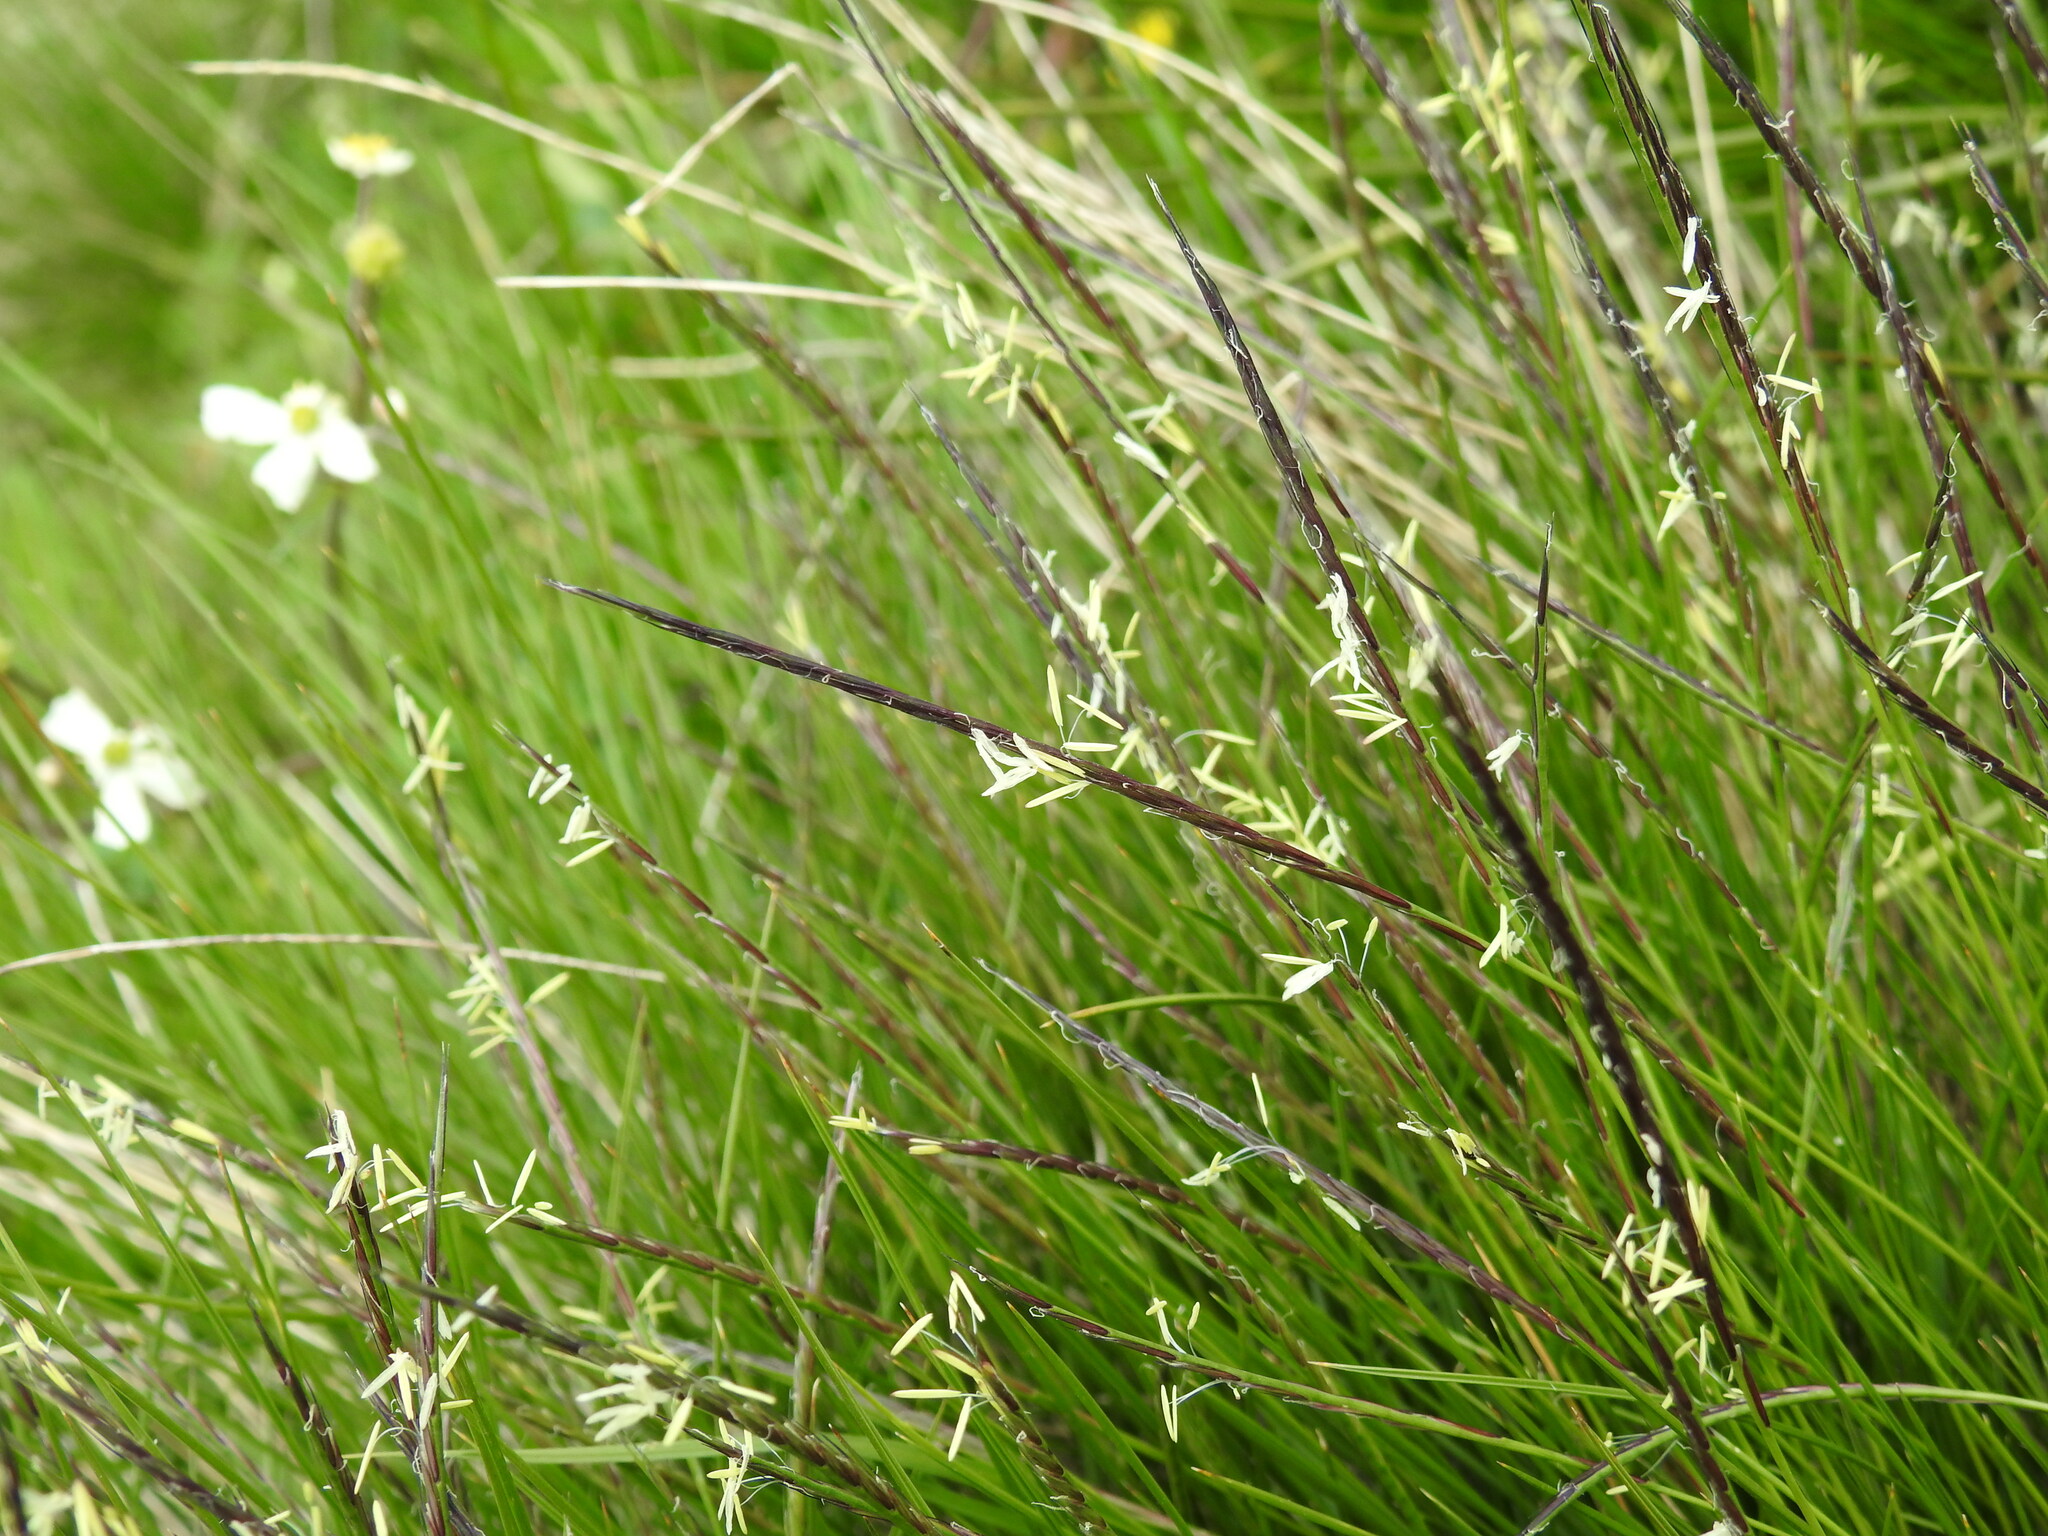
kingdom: Plantae
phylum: Tracheophyta
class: Liliopsida
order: Poales
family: Poaceae
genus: Nardus
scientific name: Nardus stricta
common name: Mat-grass
